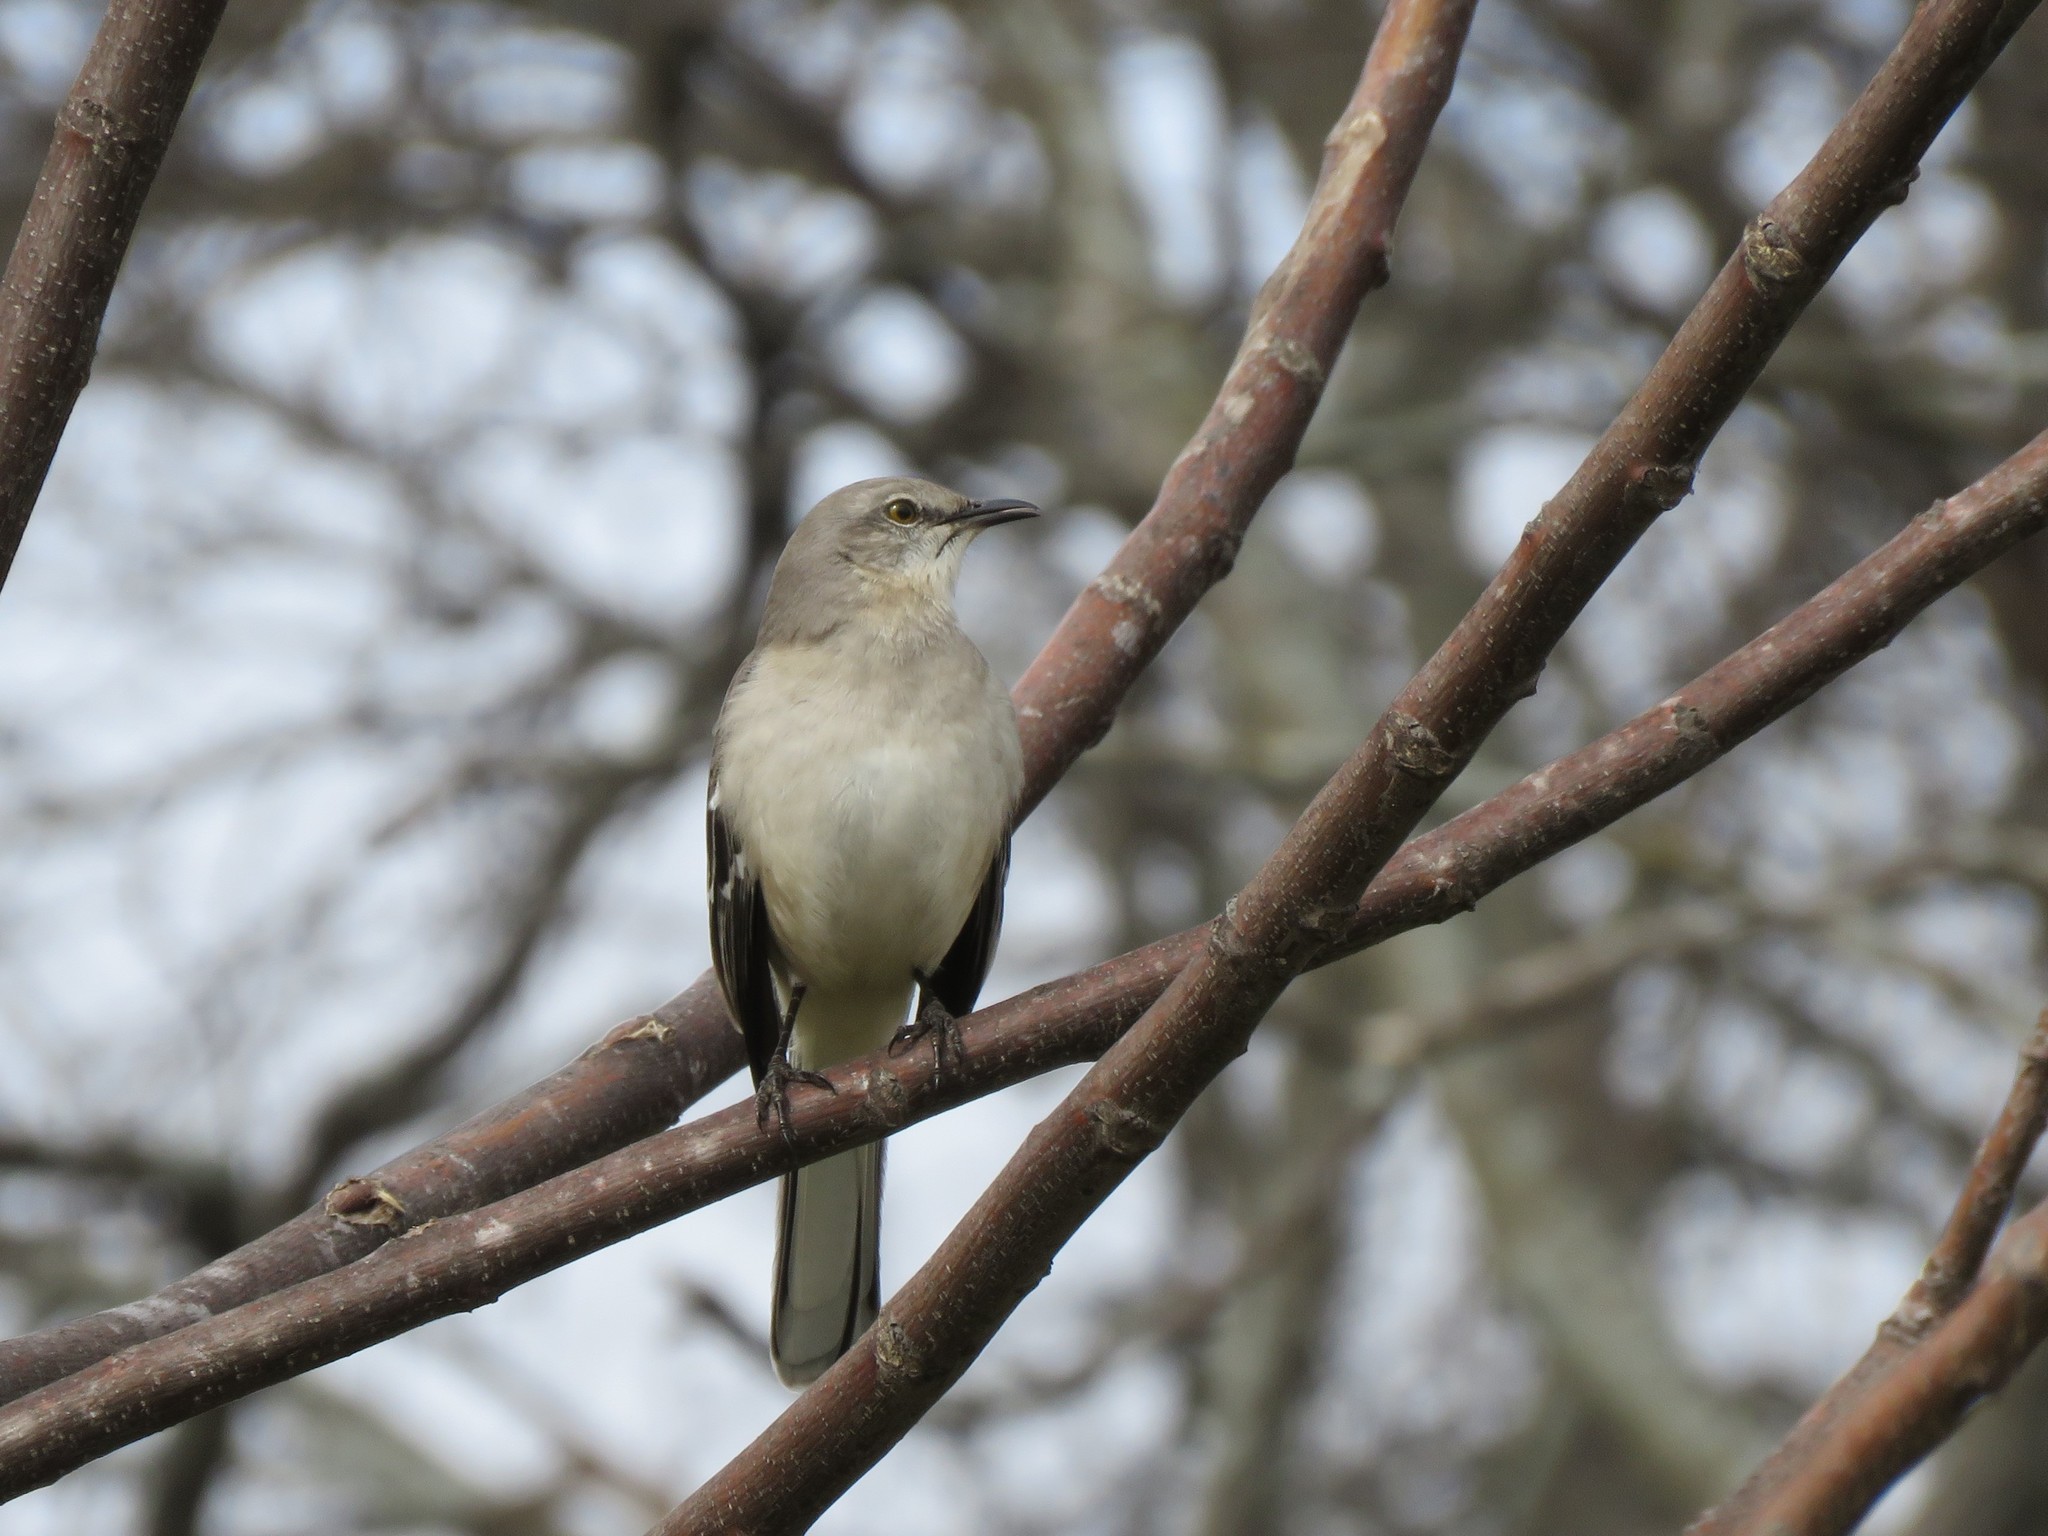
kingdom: Animalia
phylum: Chordata
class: Aves
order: Passeriformes
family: Mimidae
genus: Mimus
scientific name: Mimus polyglottos
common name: Northern mockingbird
